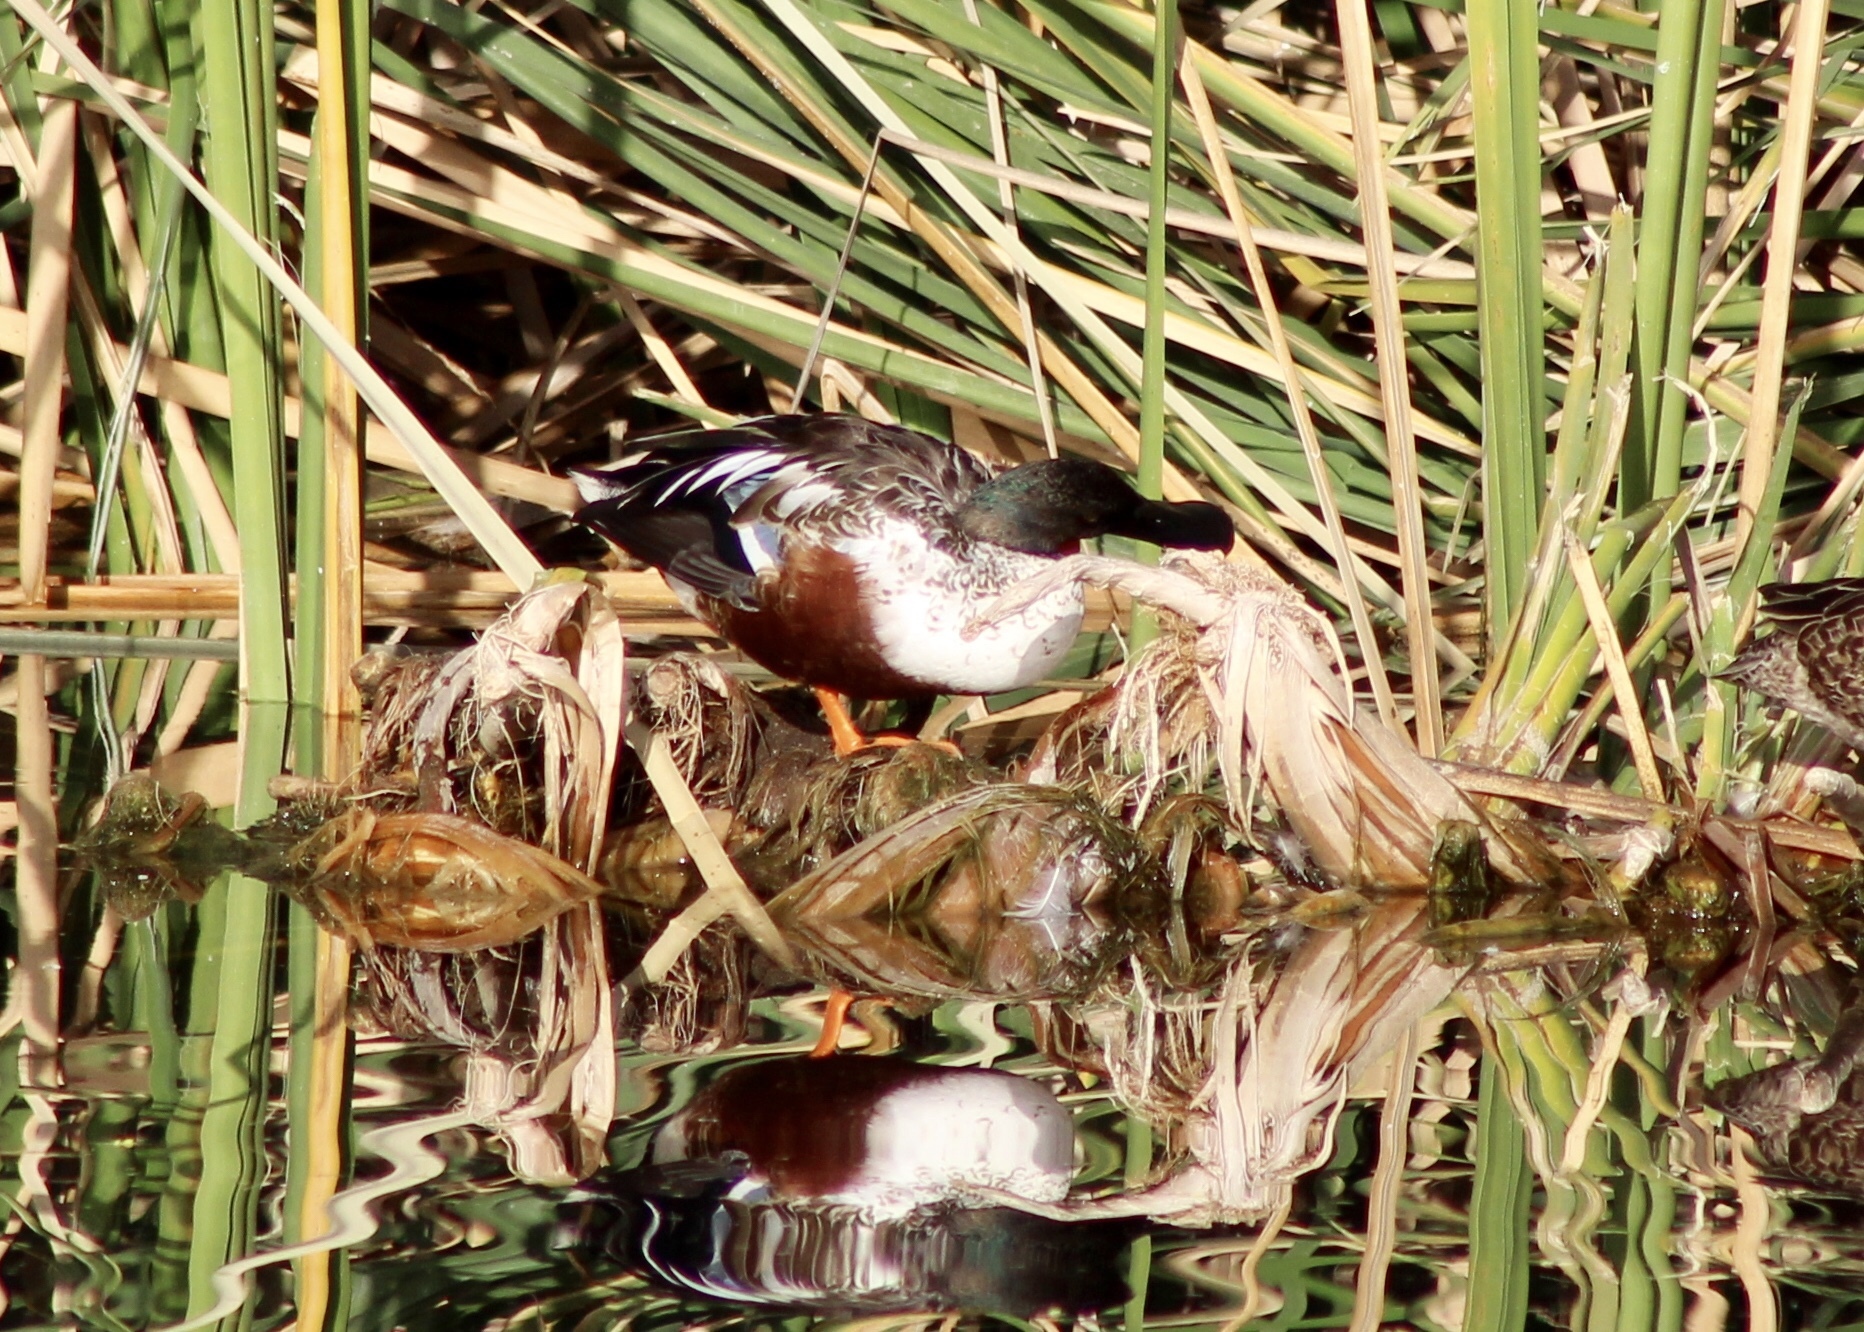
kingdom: Animalia
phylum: Chordata
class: Aves
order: Anseriformes
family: Anatidae
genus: Spatula
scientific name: Spatula clypeata
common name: Northern shoveler
